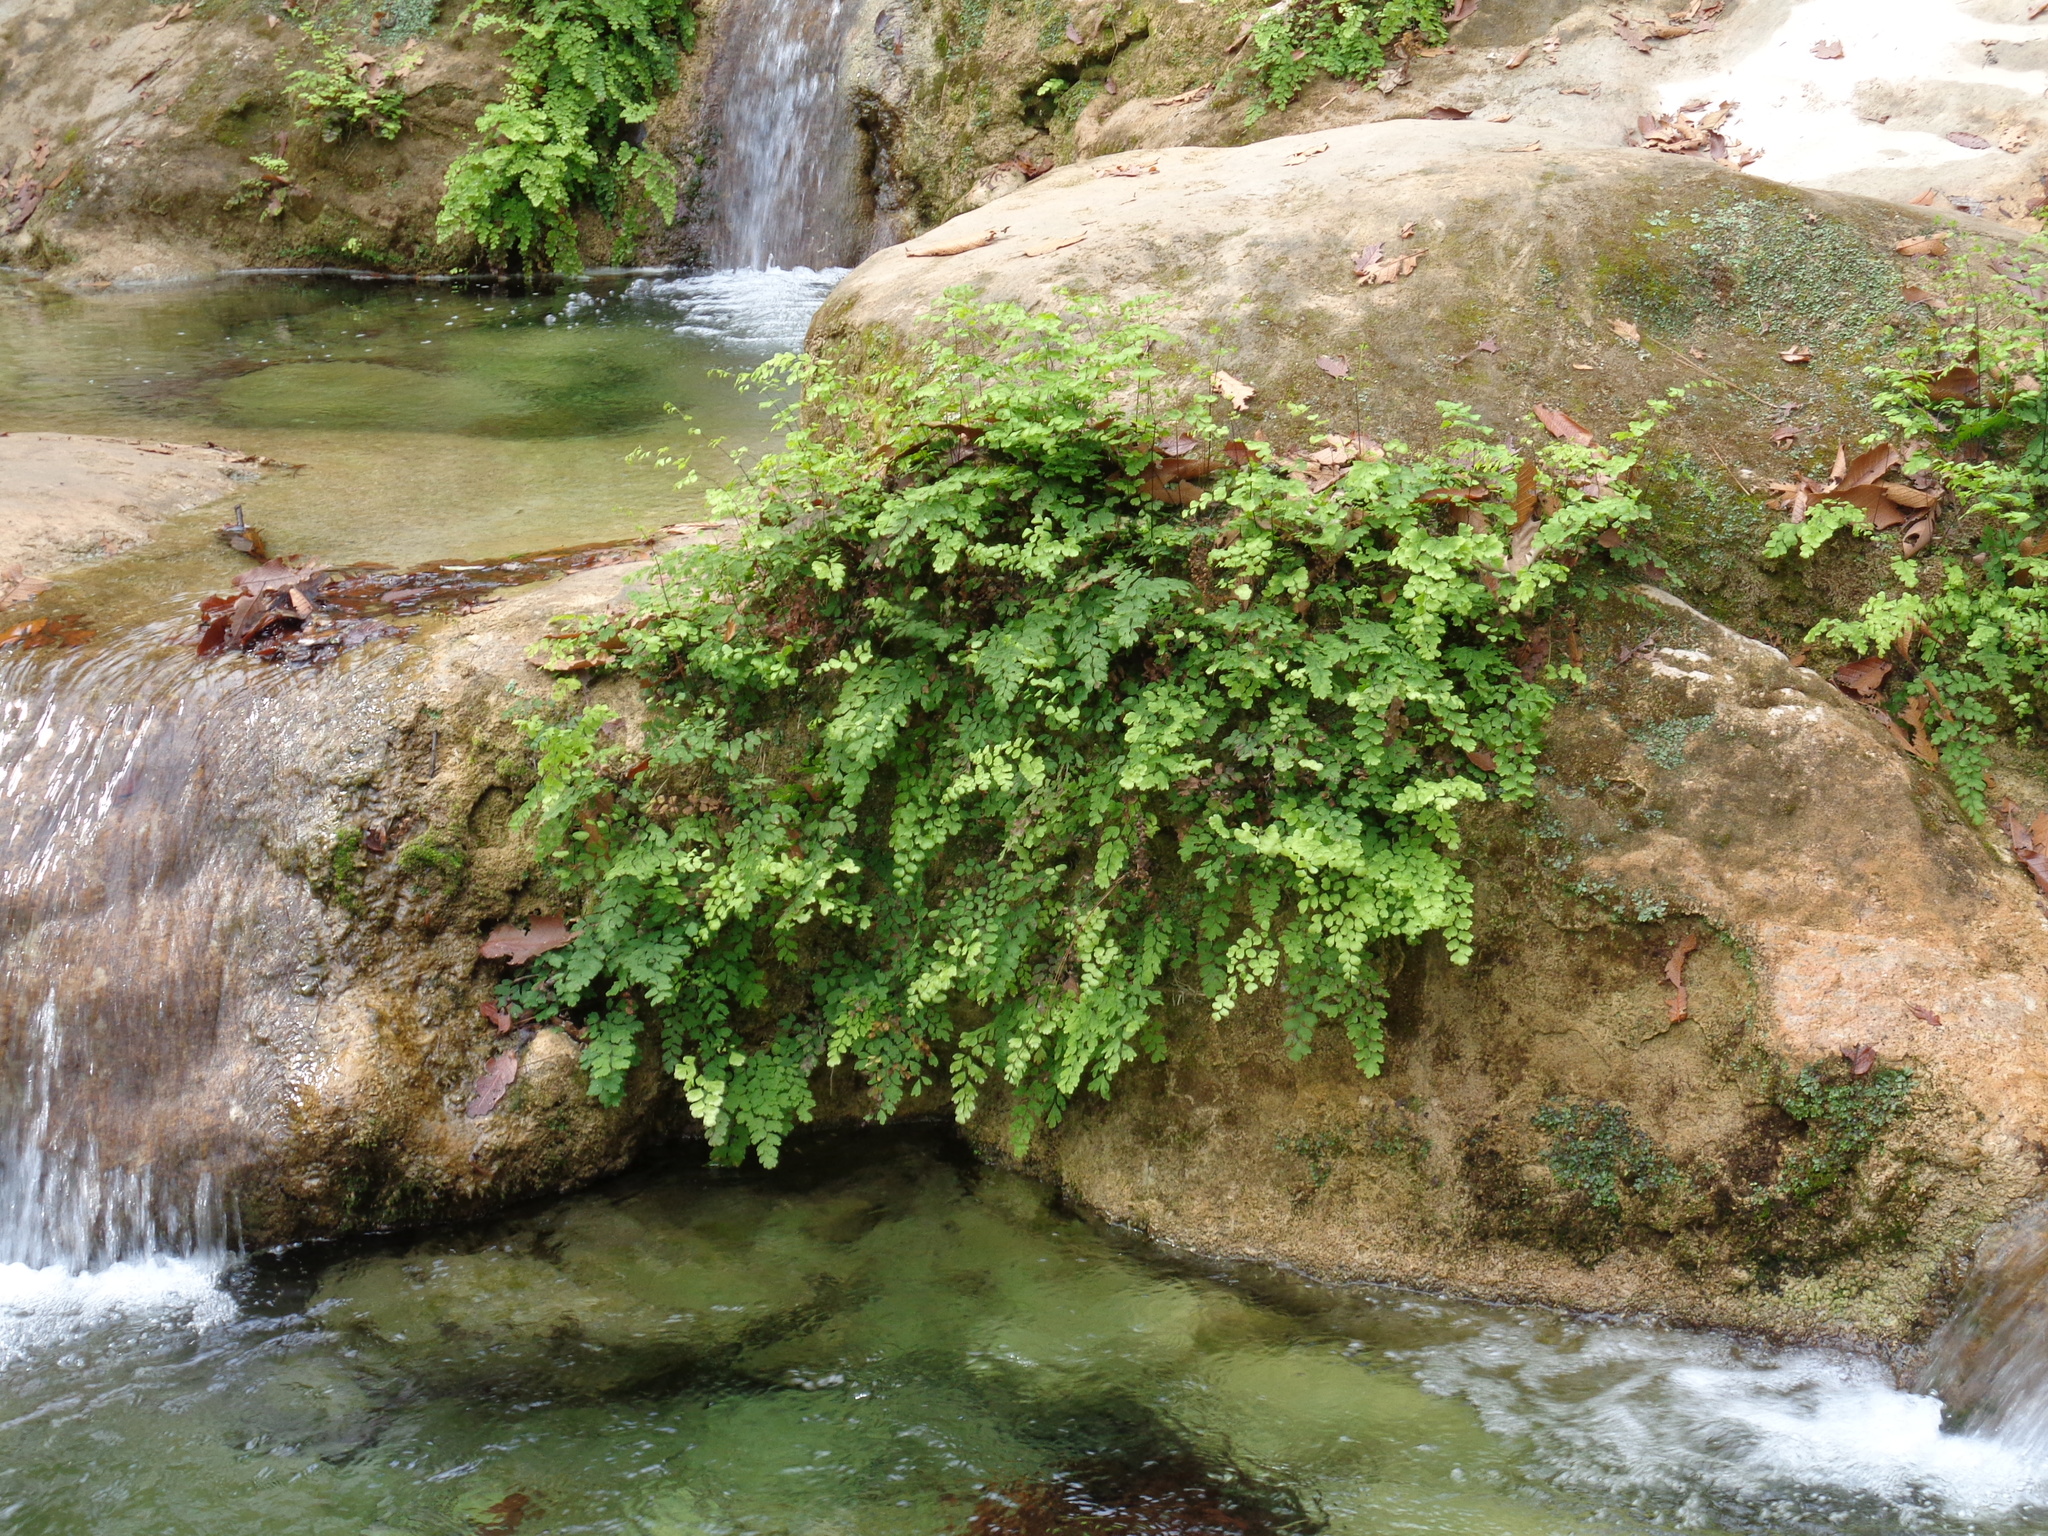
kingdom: Plantae
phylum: Tracheophyta
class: Polypodiopsida
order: Polypodiales
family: Pteridaceae
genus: Adiantum
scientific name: Adiantum capillus-veneris
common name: Maidenhair fern
